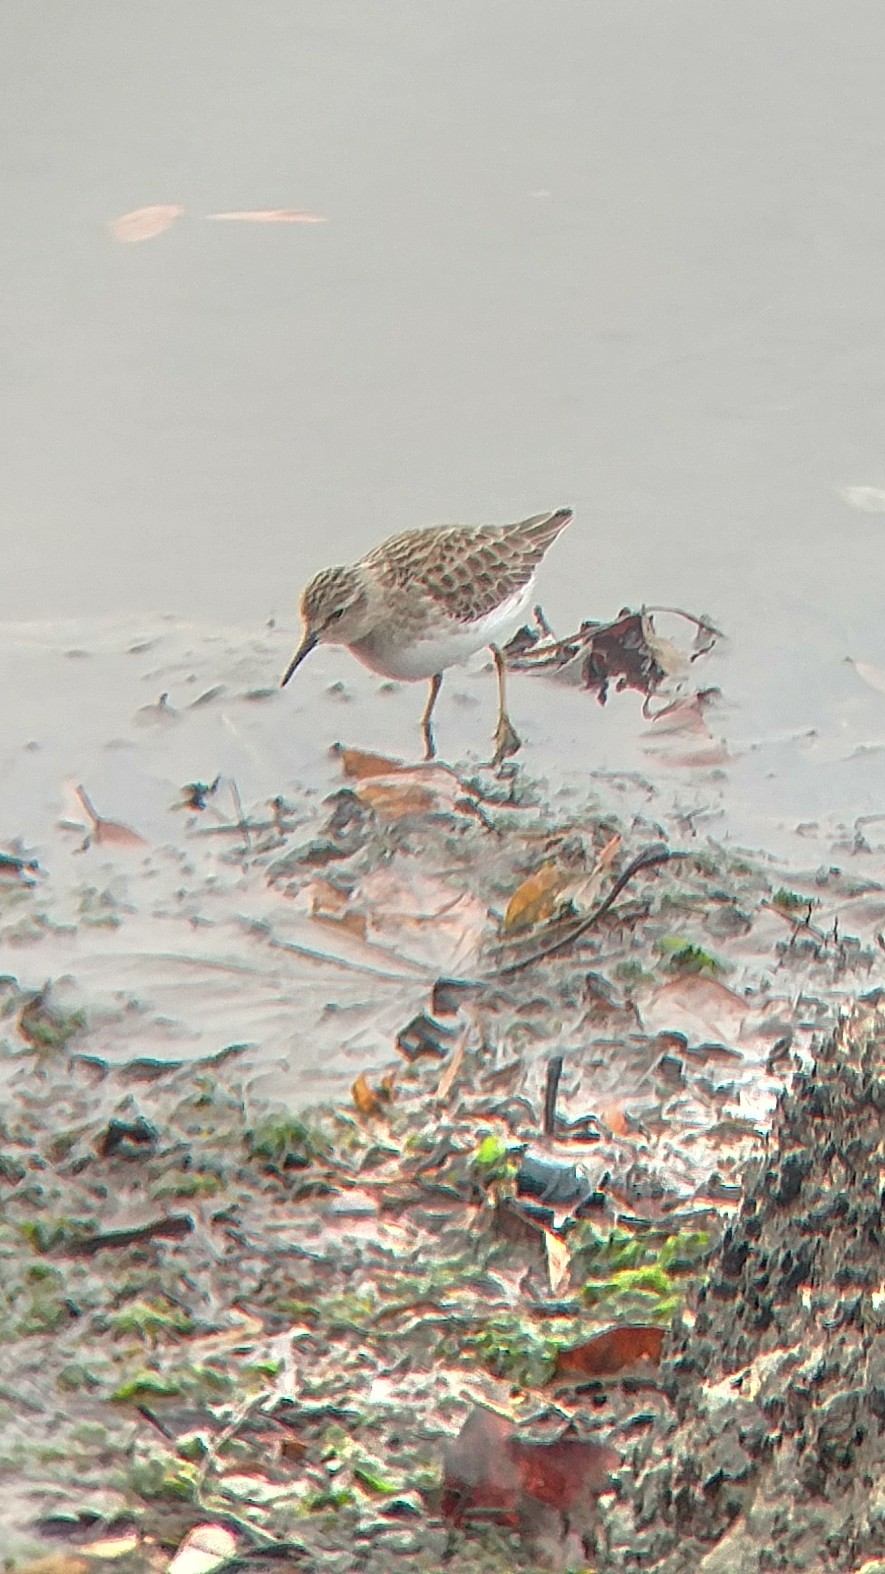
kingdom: Animalia
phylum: Chordata
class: Aves
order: Charadriiformes
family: Scolopacidae
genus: Calidris
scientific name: Calidris minutilla
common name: Least sandpiper
